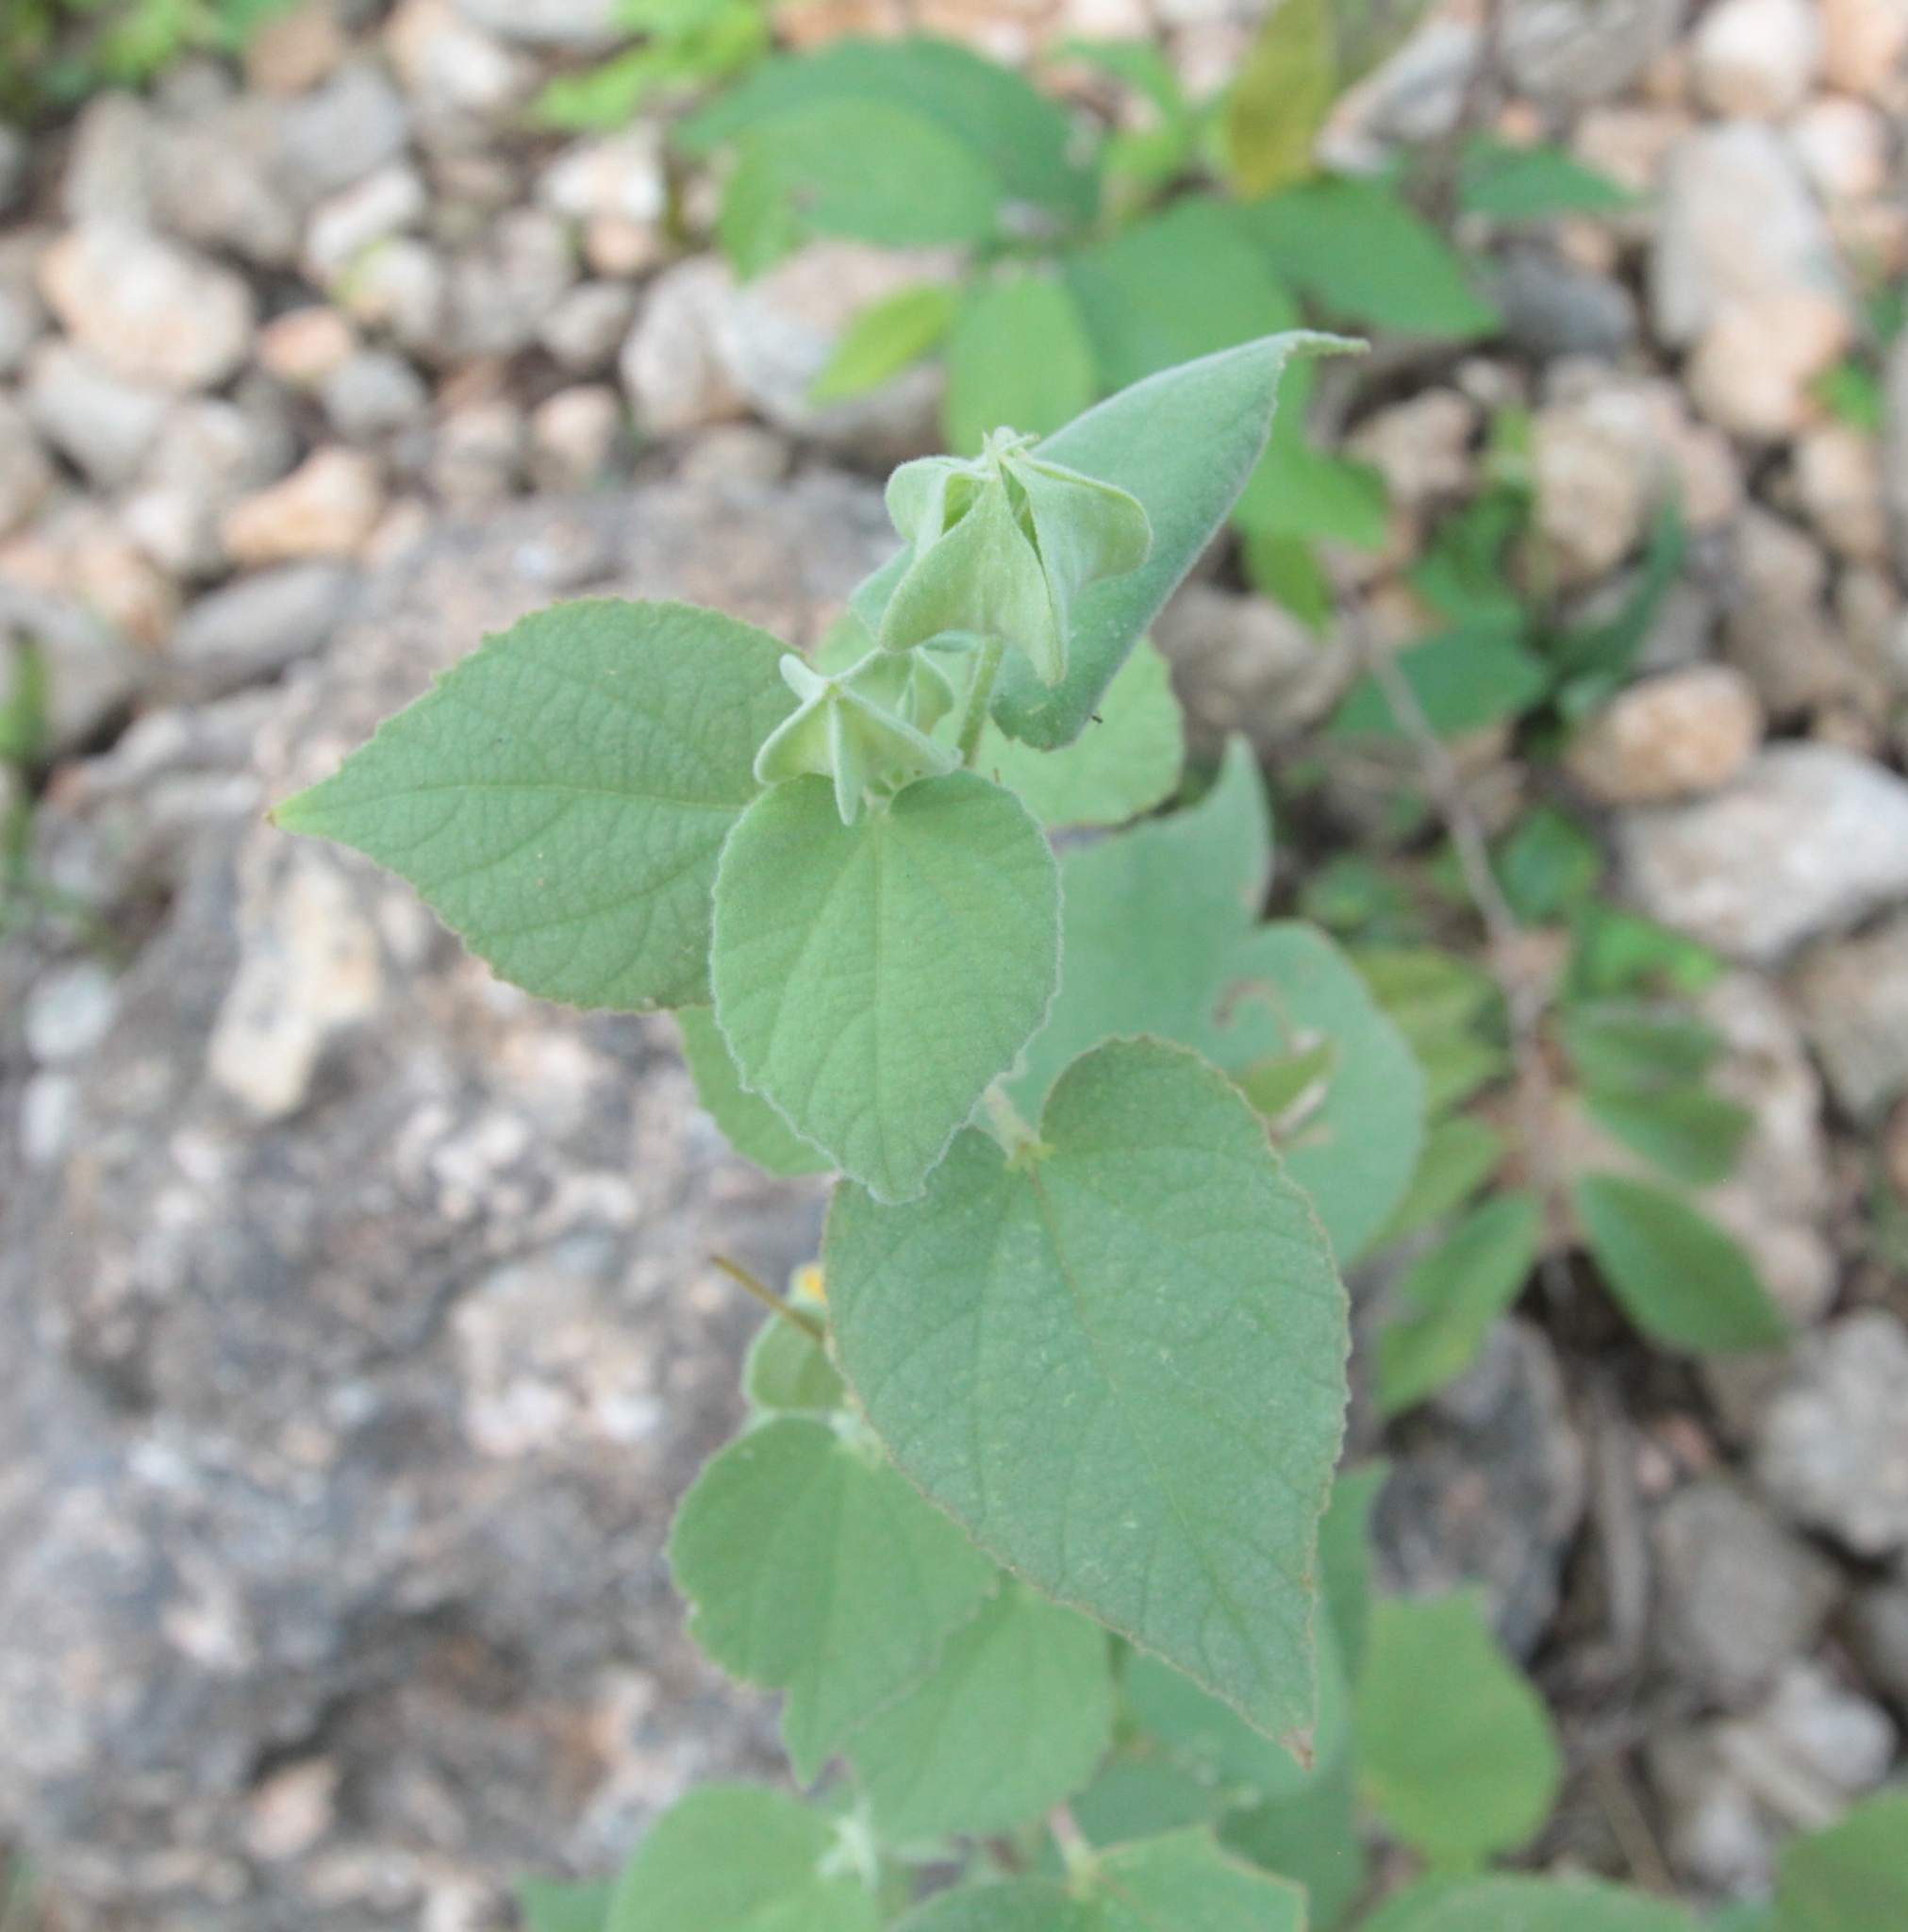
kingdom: Plantae
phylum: Tracheophyta
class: Magnoliopsida
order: Malvales
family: Malvaceae
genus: Abutilon
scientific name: Abutilon abutiloides
